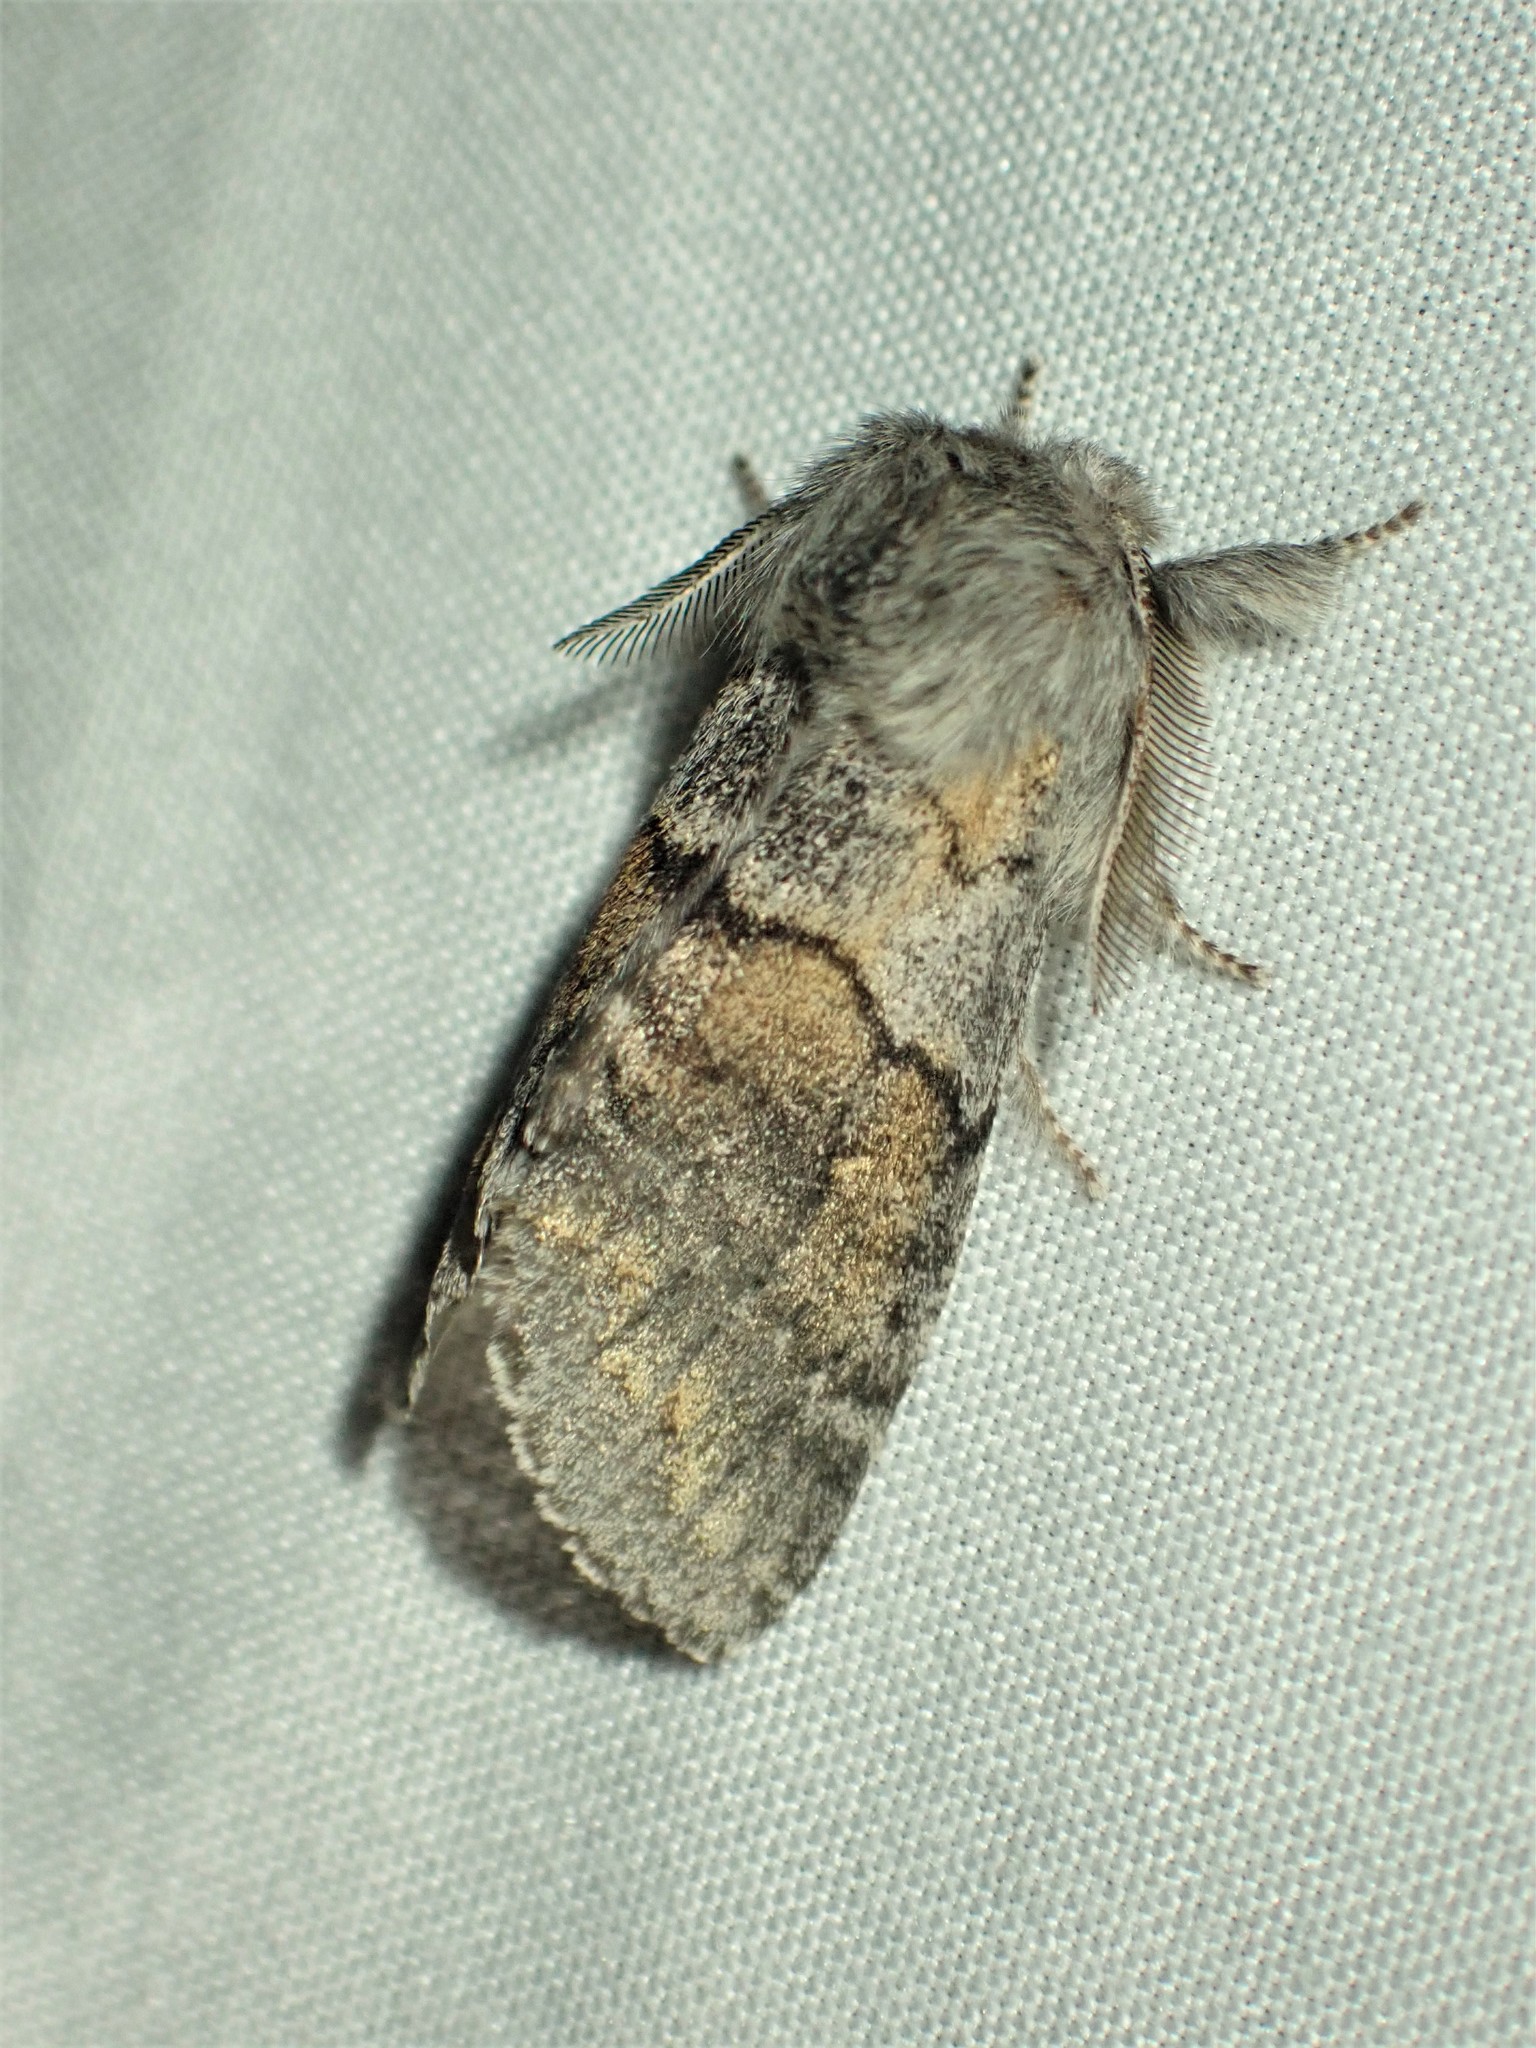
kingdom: Animalia
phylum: Arthropoda
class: Insecta
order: Lepidoptera
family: Notodontidae
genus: Gluphisia
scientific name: Gluphisia lintneri
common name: Lintner's gluphisia moth
